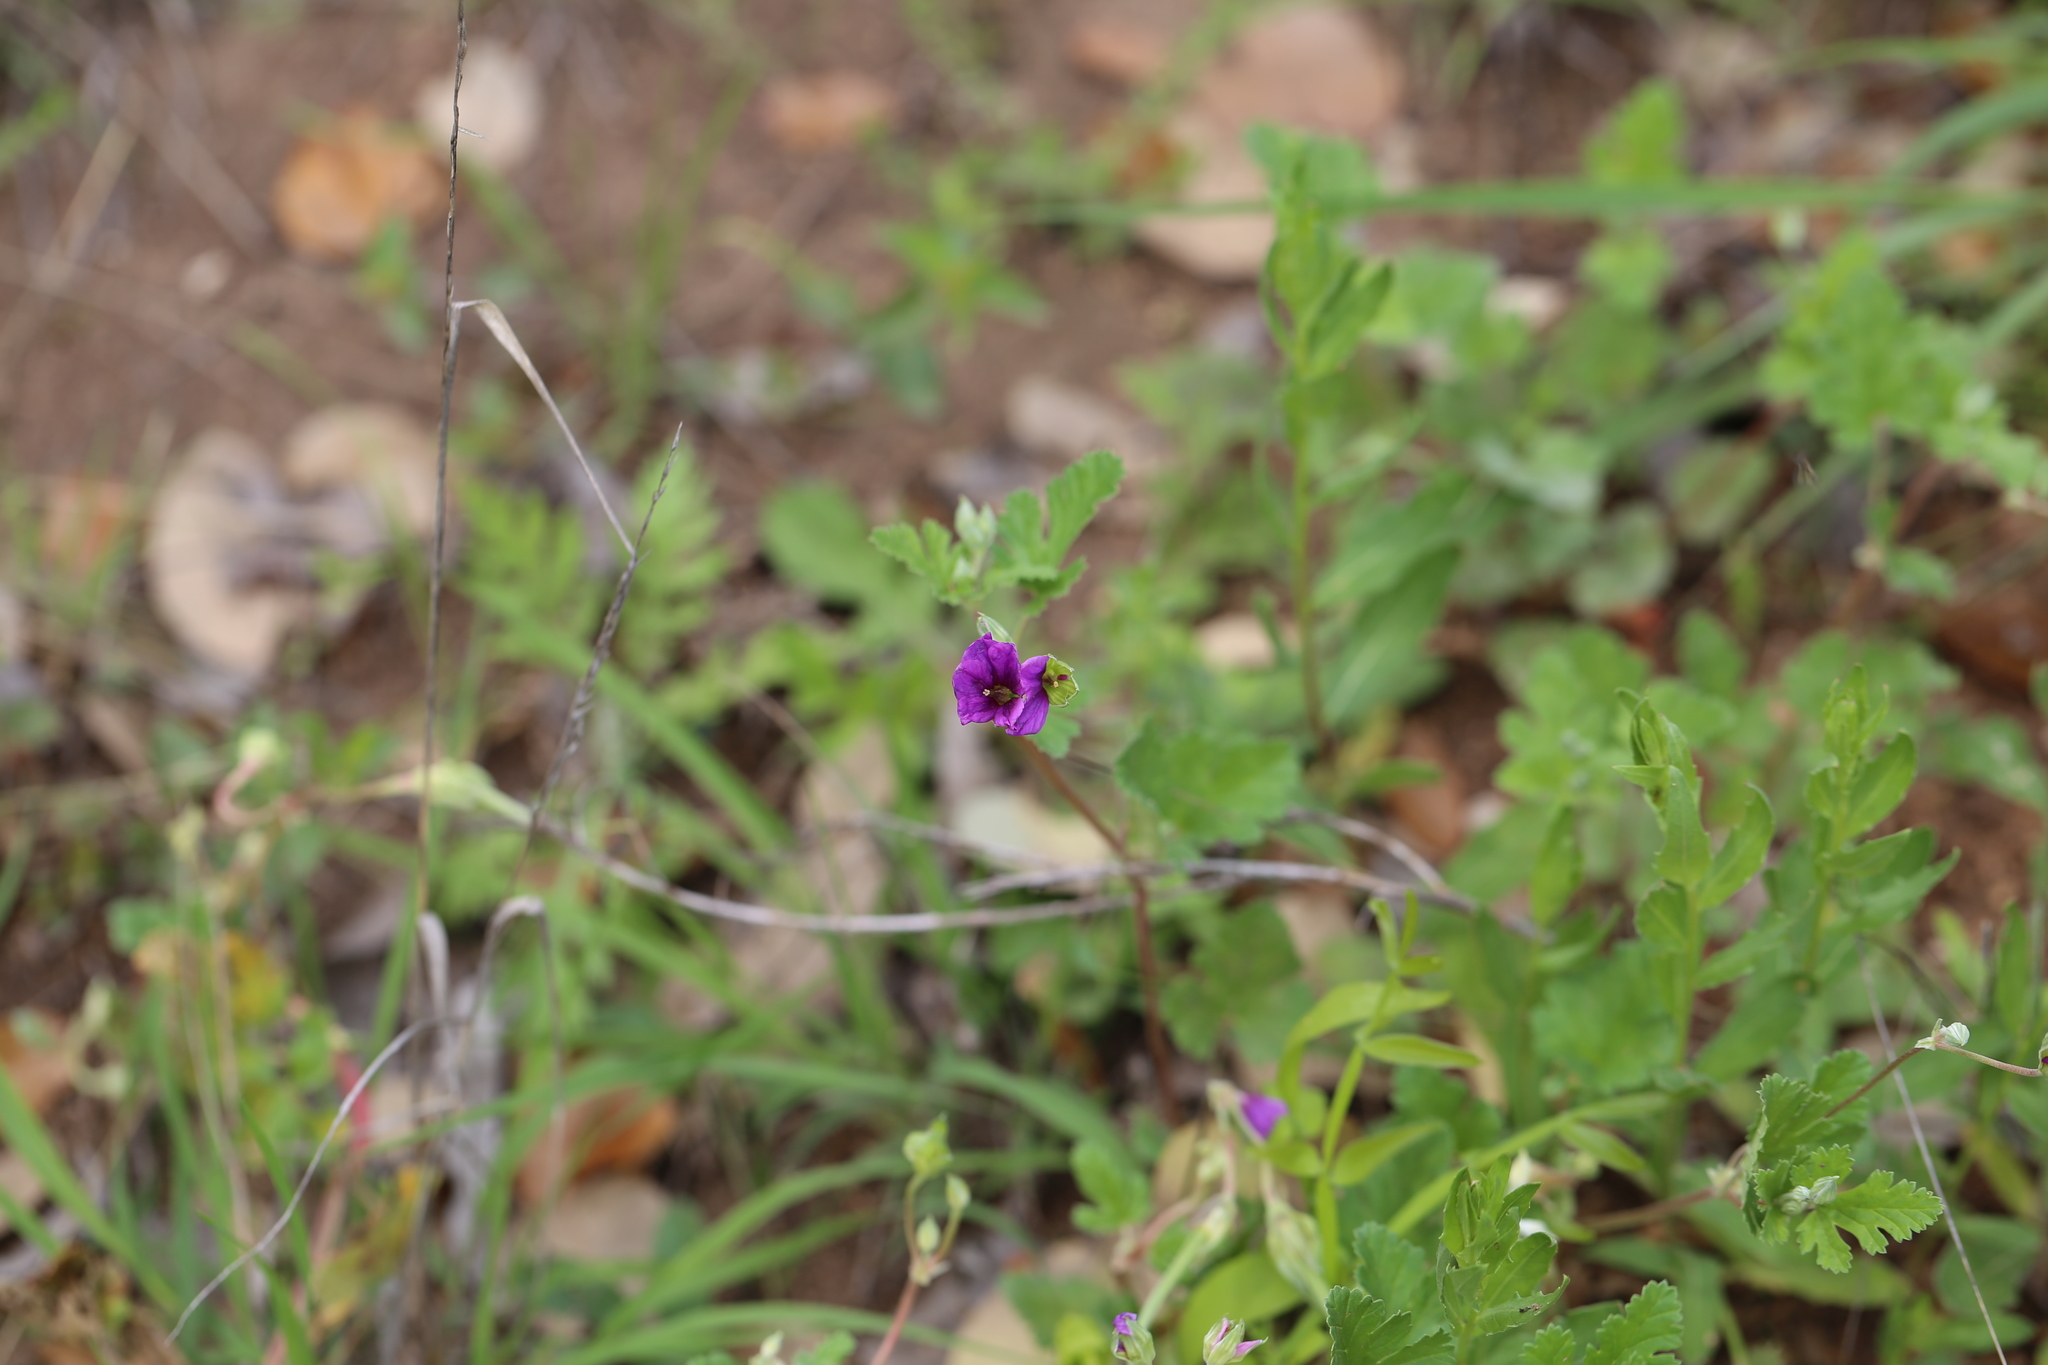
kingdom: Plantae
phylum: Tracheophyta
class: Magnoliopsida
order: Geraniales
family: Geraniaceae
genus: Erodium
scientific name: Erodium texanum
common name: Texas stork's-bill
